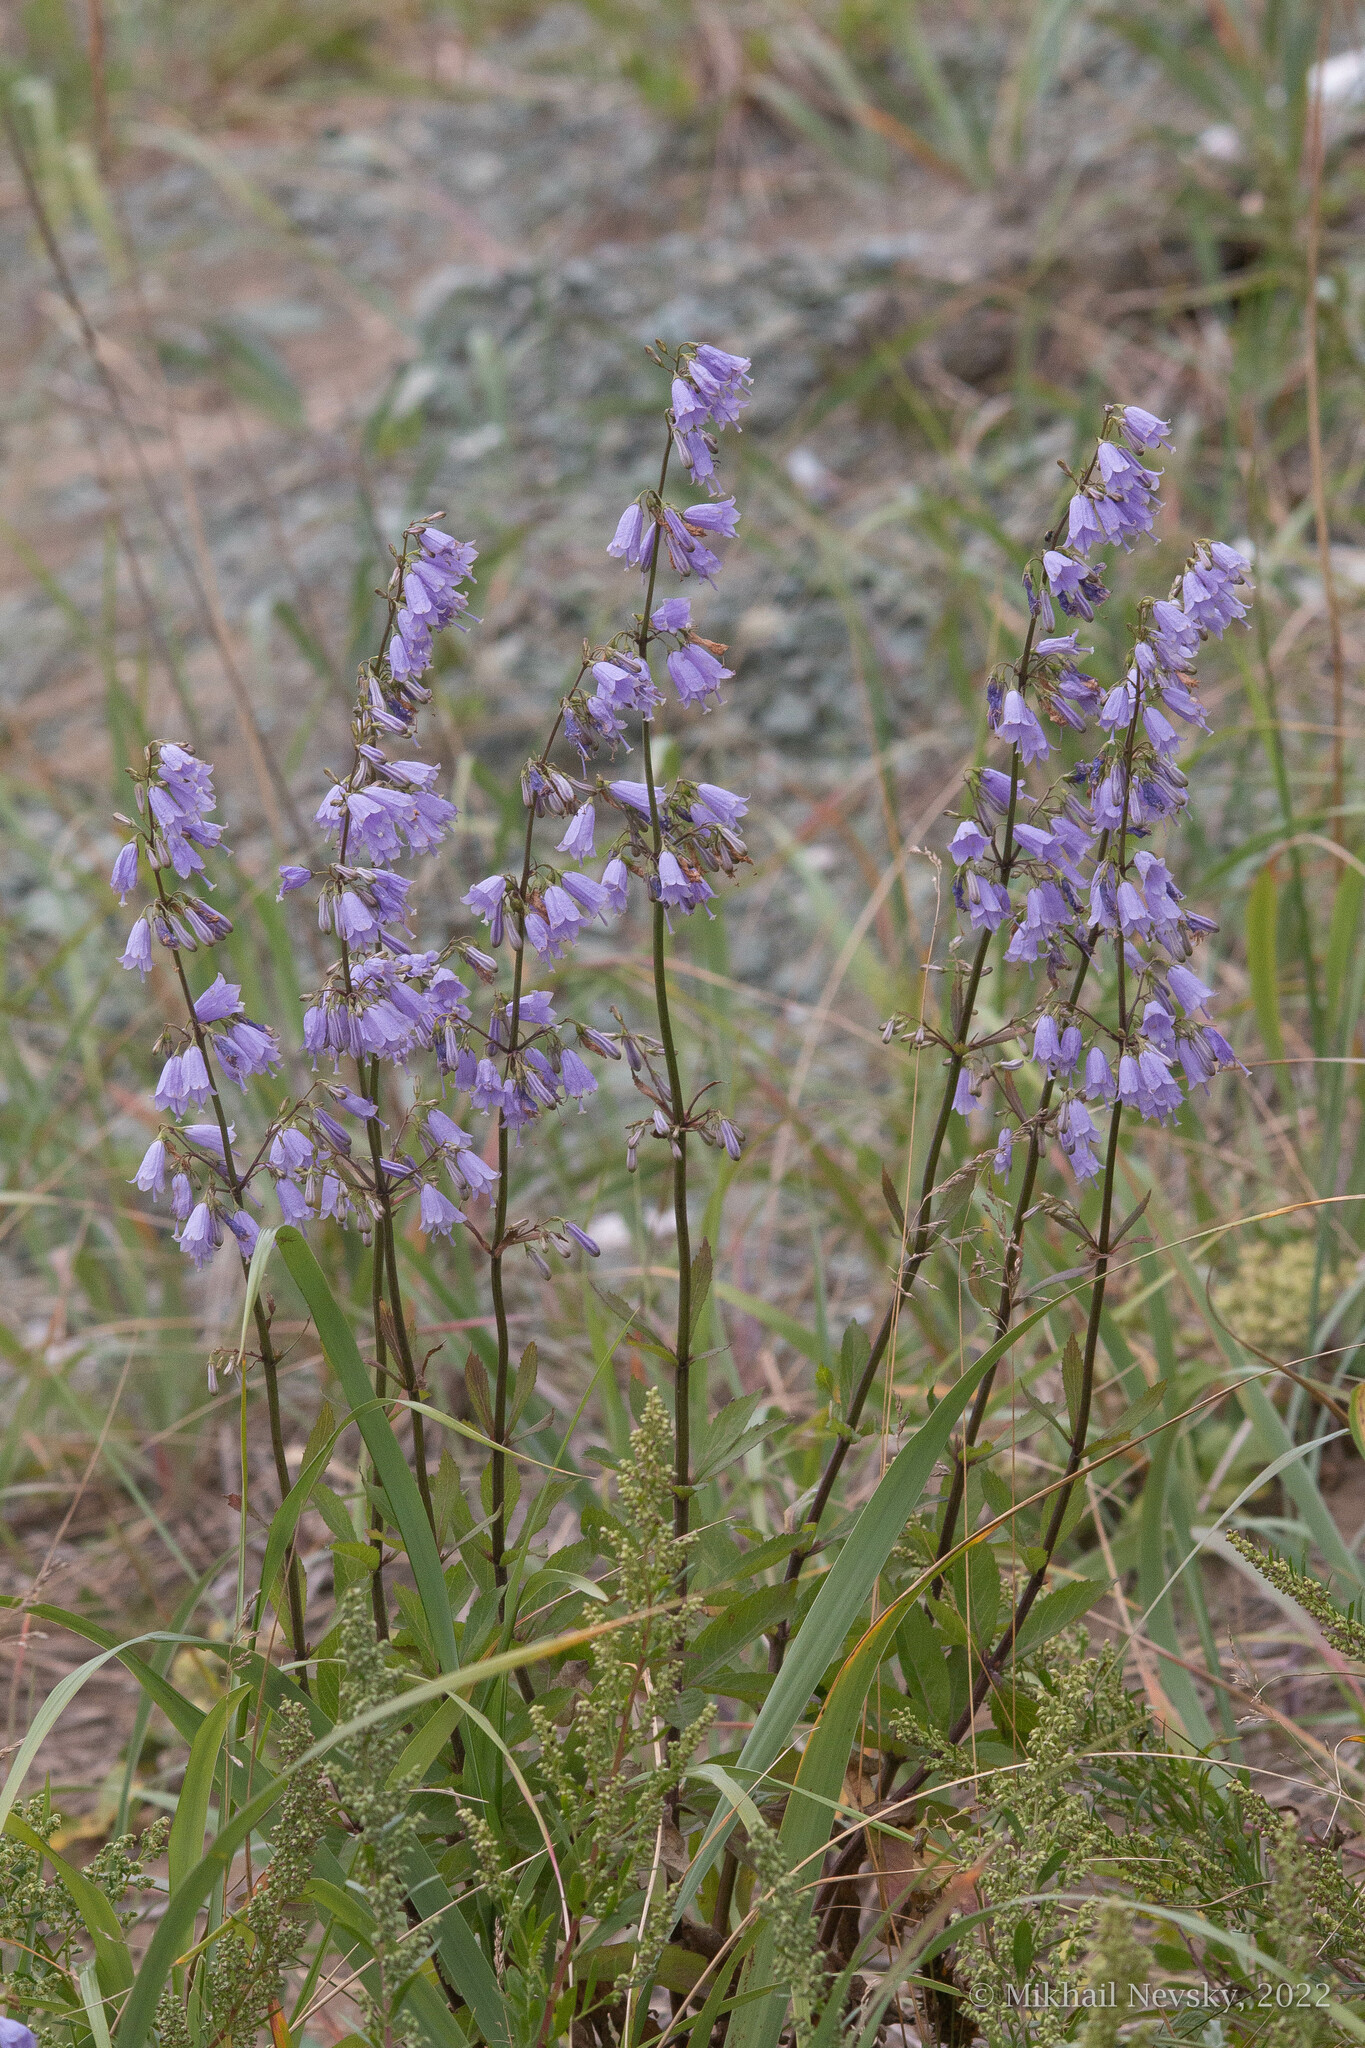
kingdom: Plantae
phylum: Tracheophyta
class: Magnoliopsida
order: Asterales
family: Campanulaceae
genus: Adenophora
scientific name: Adenophora triphylla
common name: Giant-bellflower
